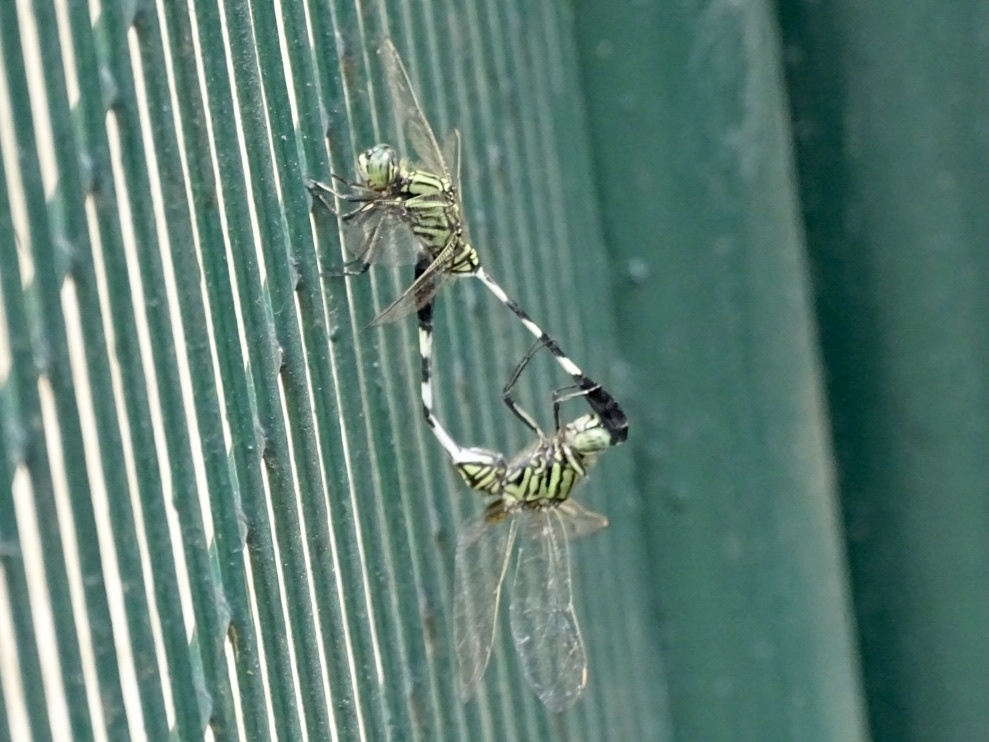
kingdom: Animalia
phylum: Arthropoda
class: Insecta
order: Odonata
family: Libellulidae
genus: Orthetrum
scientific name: Orthetrum sabina
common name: Slender skimmer
